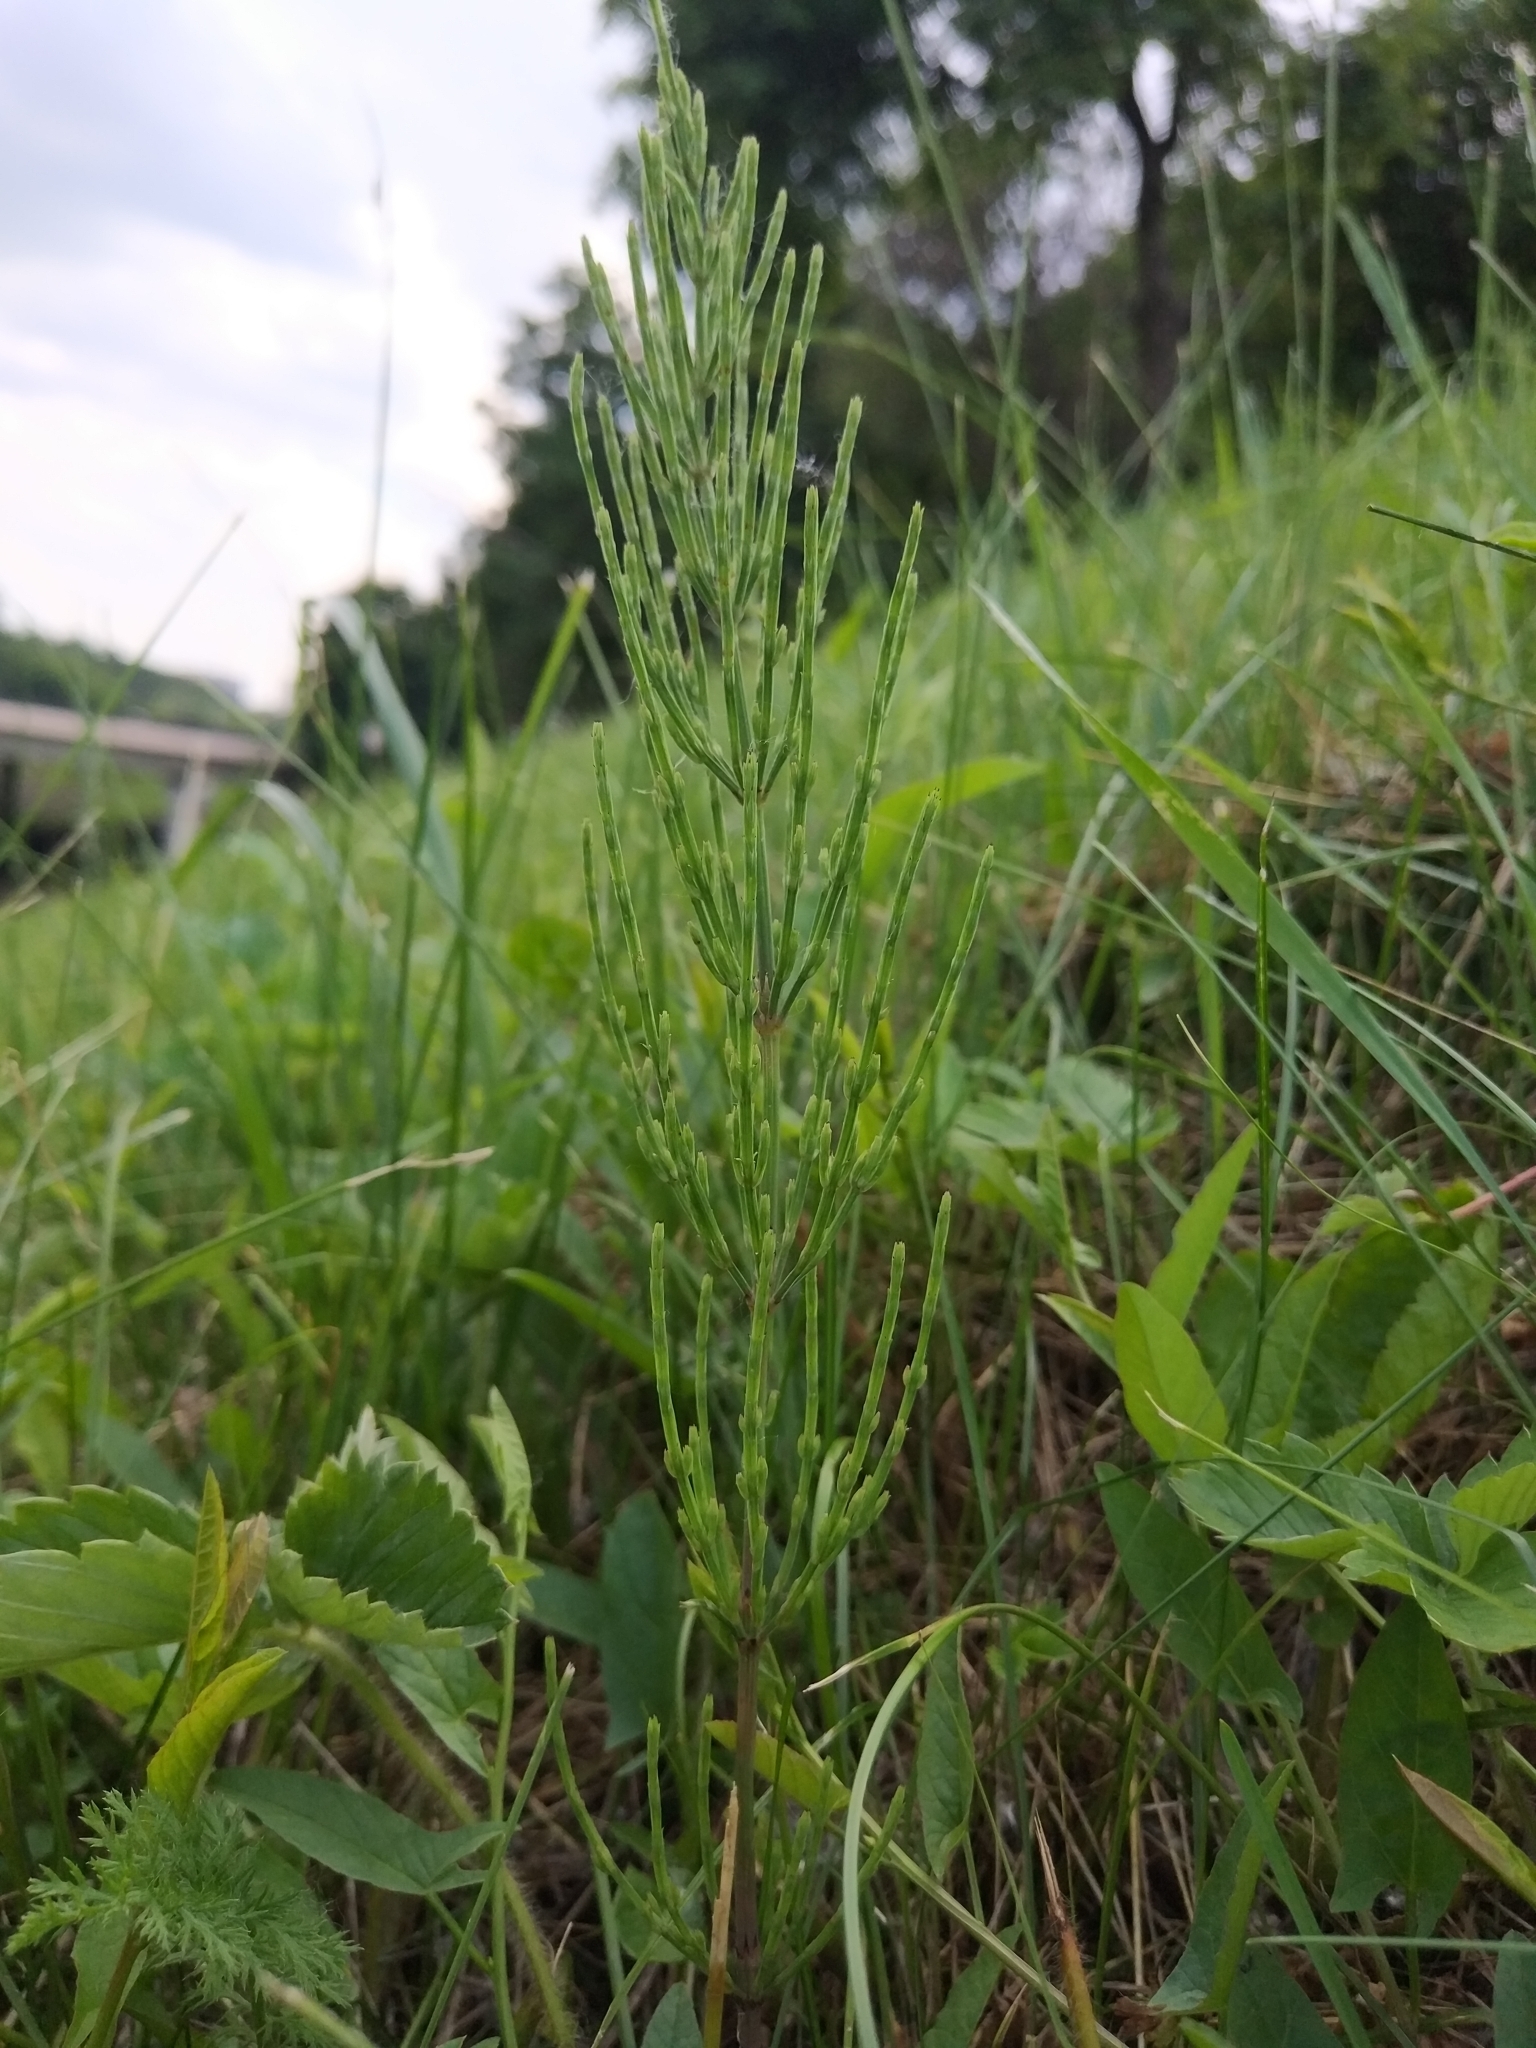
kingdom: Plantae
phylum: Tracheophyta
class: Polypodiopsida
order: Equisetales
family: Equisetaceae
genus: Equisetum
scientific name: Equisetum arvense
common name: Field horsetail
